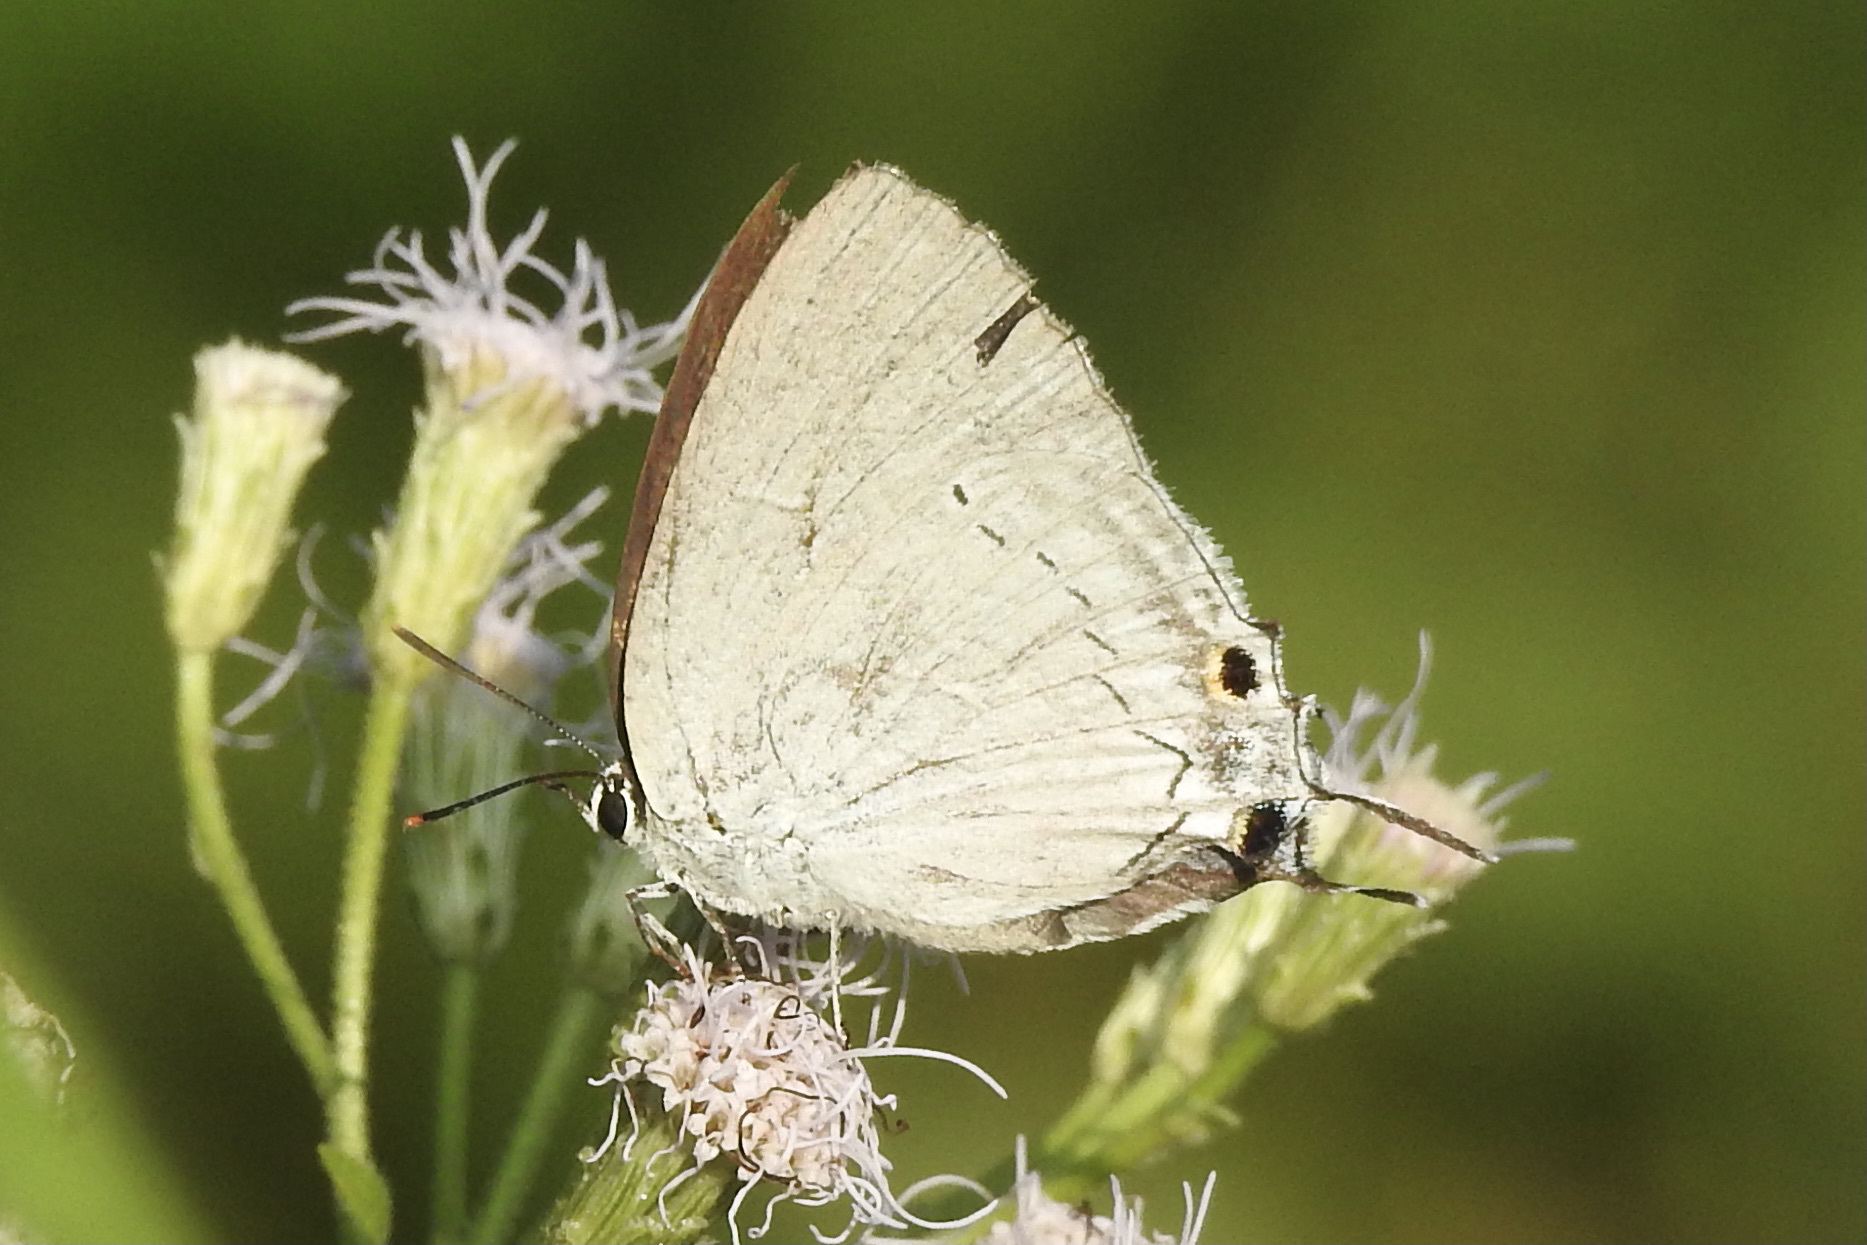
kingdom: Animalia
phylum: Arthropoda
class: Insecta
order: Lepidoptera
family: Lycaenidae
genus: Tajuria
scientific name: Tajuria cippus
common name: Peacock royal
